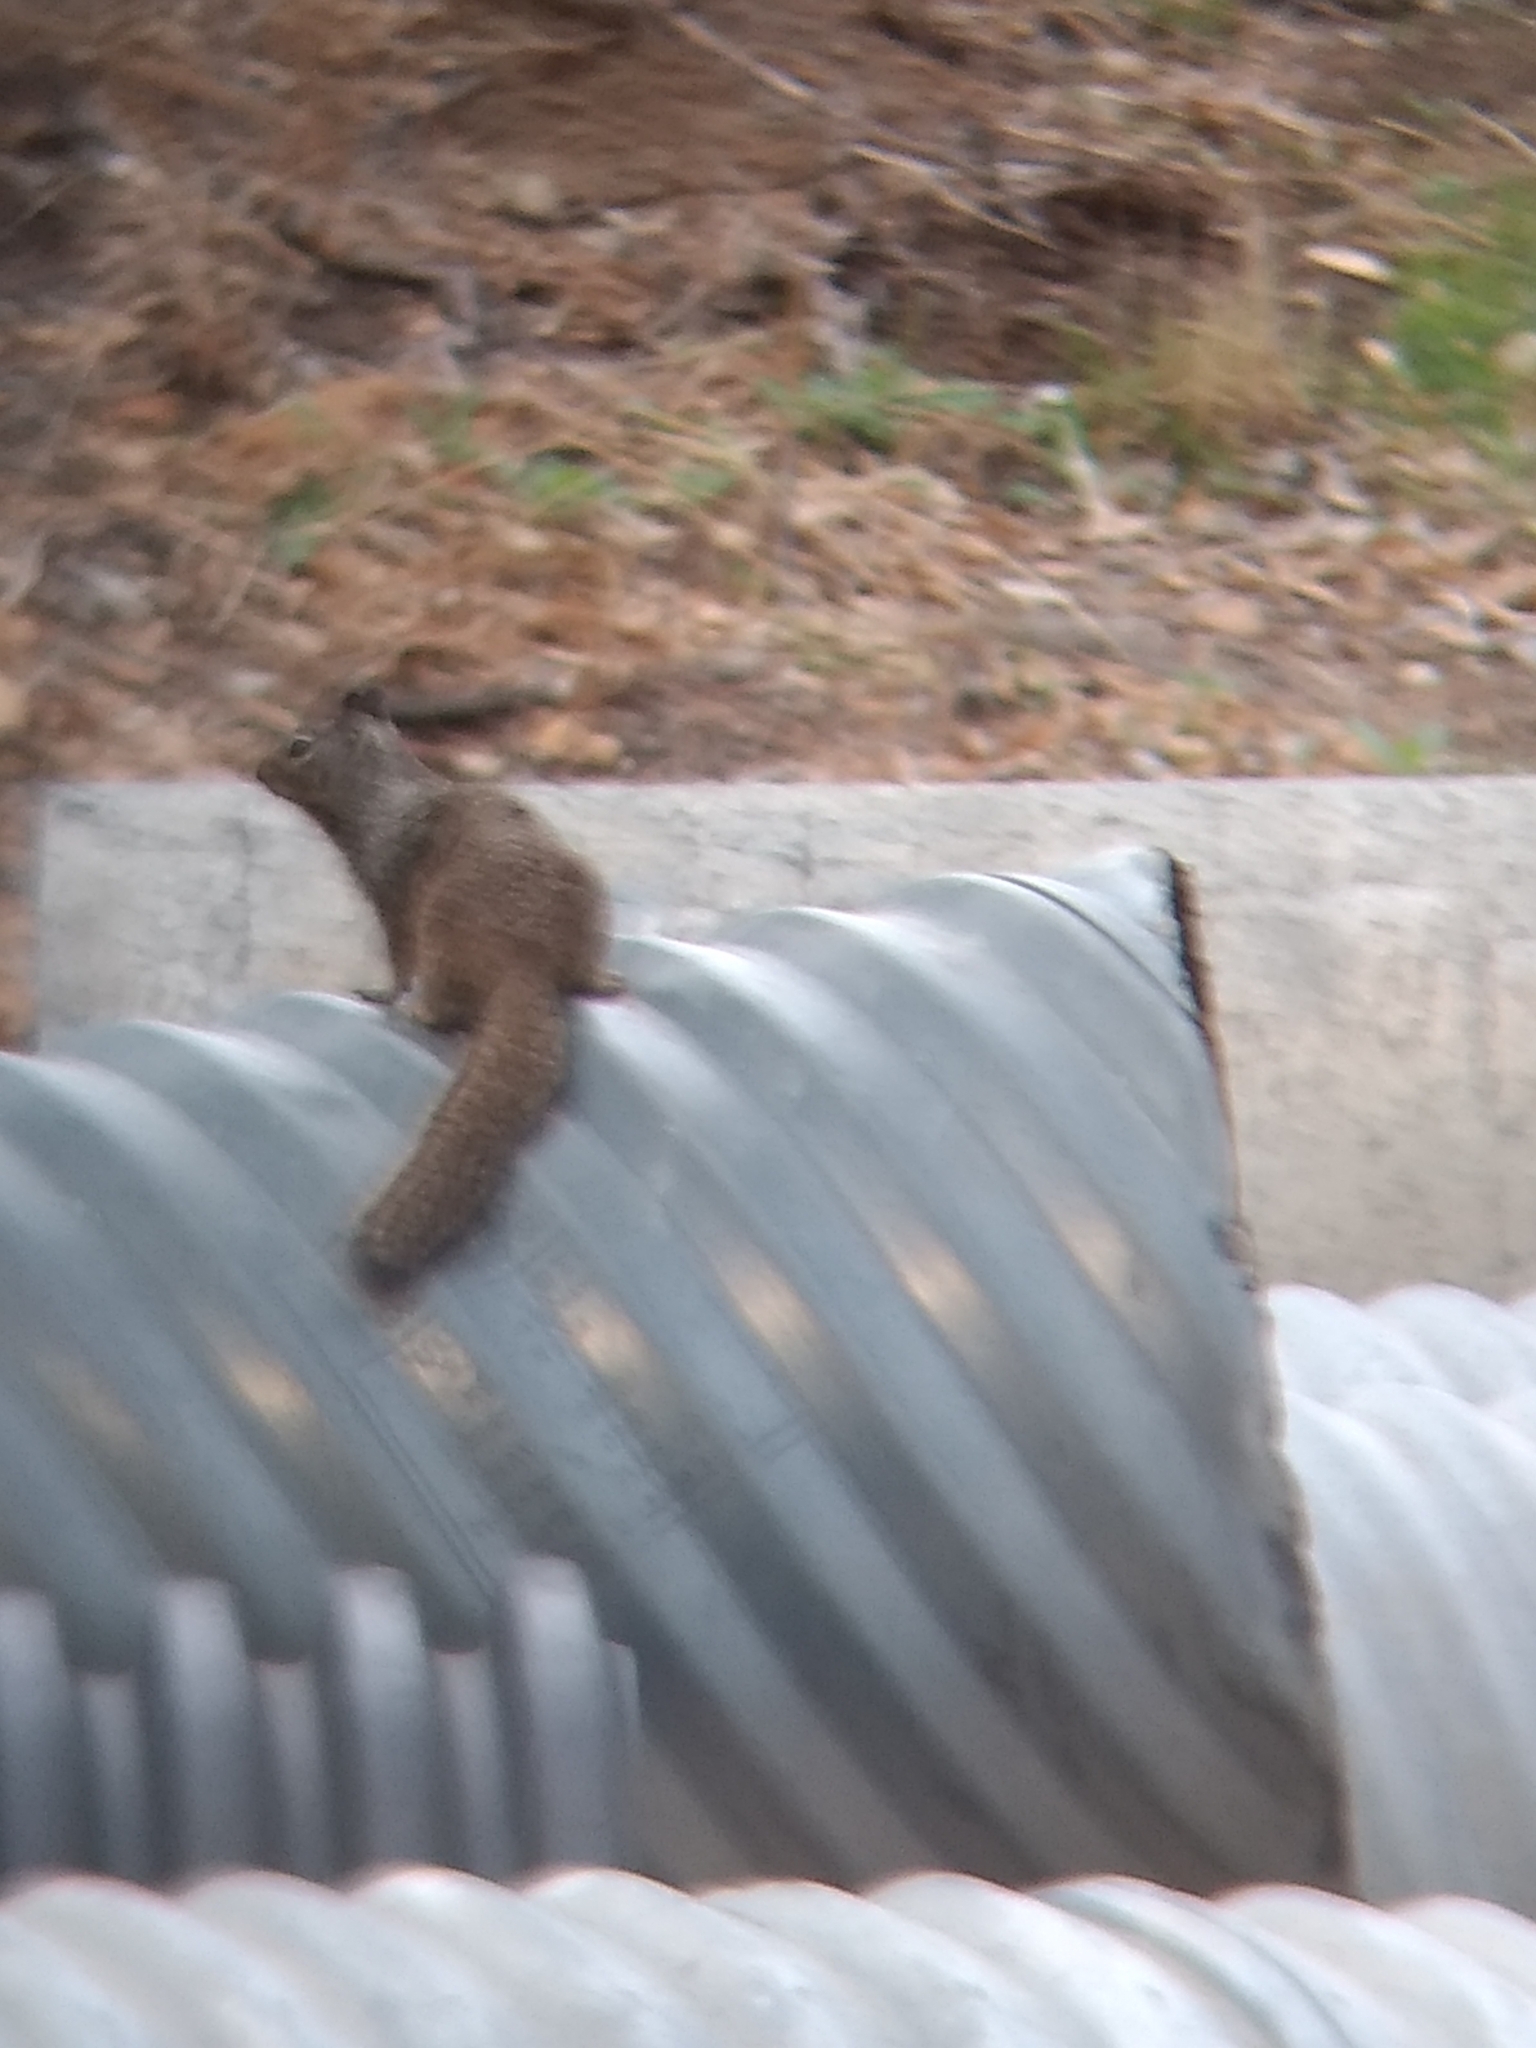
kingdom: Animalia
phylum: Chordata
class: Mammalia
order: Rodentia
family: Sciuridae
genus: Otospermophilus
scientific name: Otospermophilus beecheyi
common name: California ground squirrel
